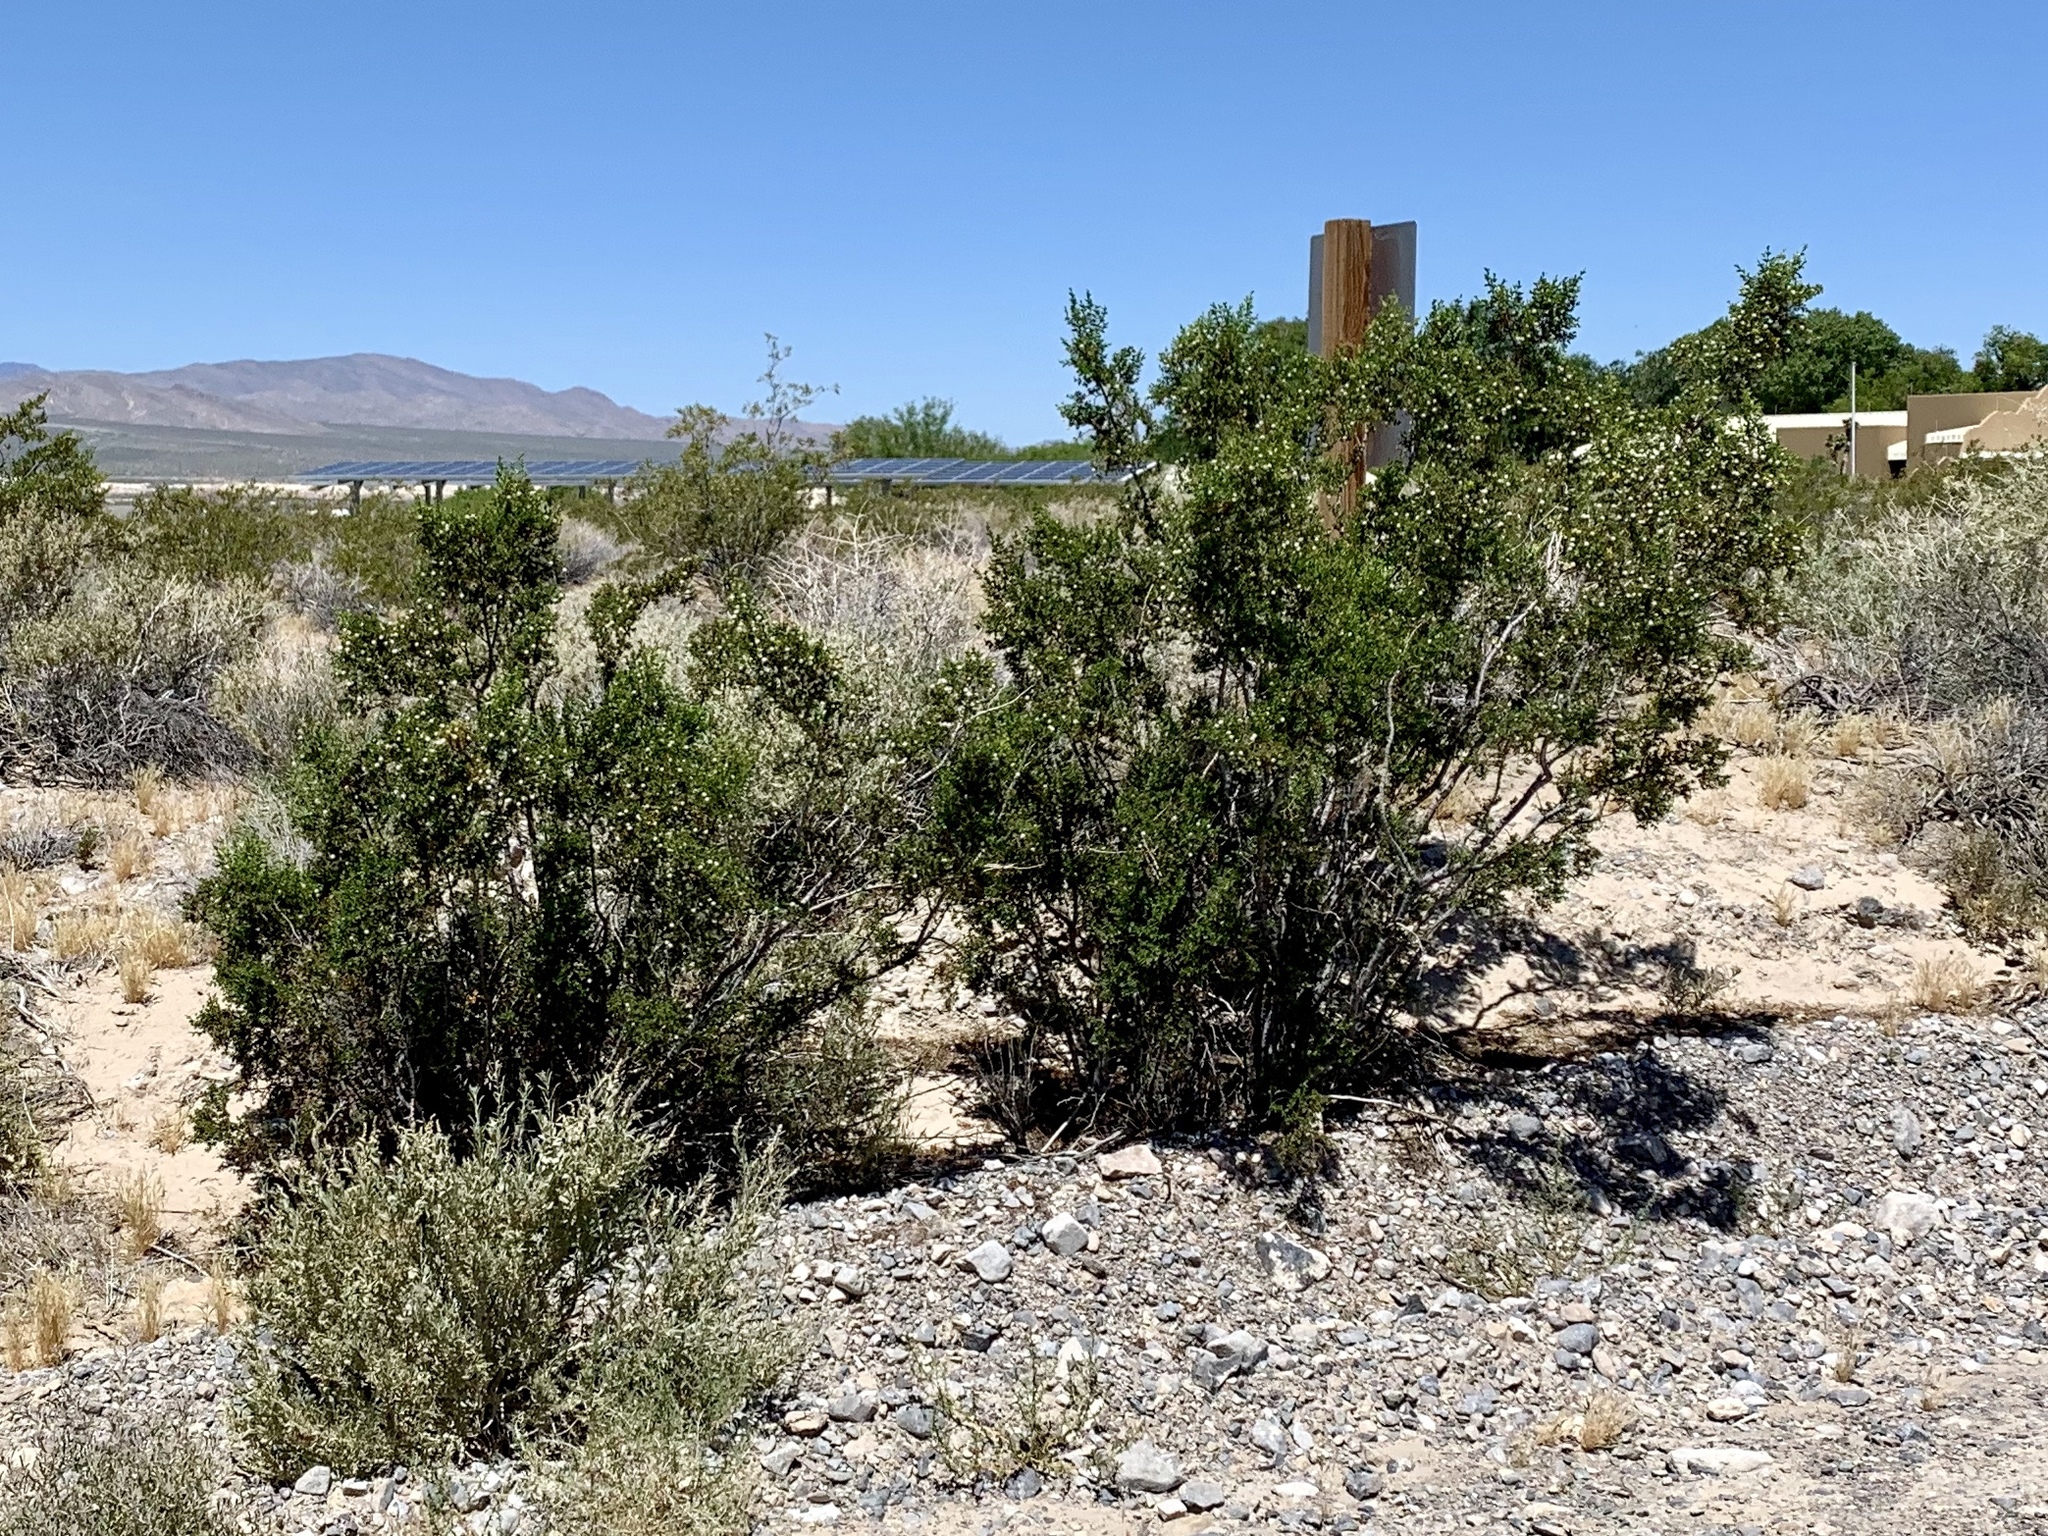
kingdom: Plantae
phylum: Tracheophyta
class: Magnoliopsida
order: Zygophyllales
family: Zygophyllaceae
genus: Larrea
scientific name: Larrea tridentata
